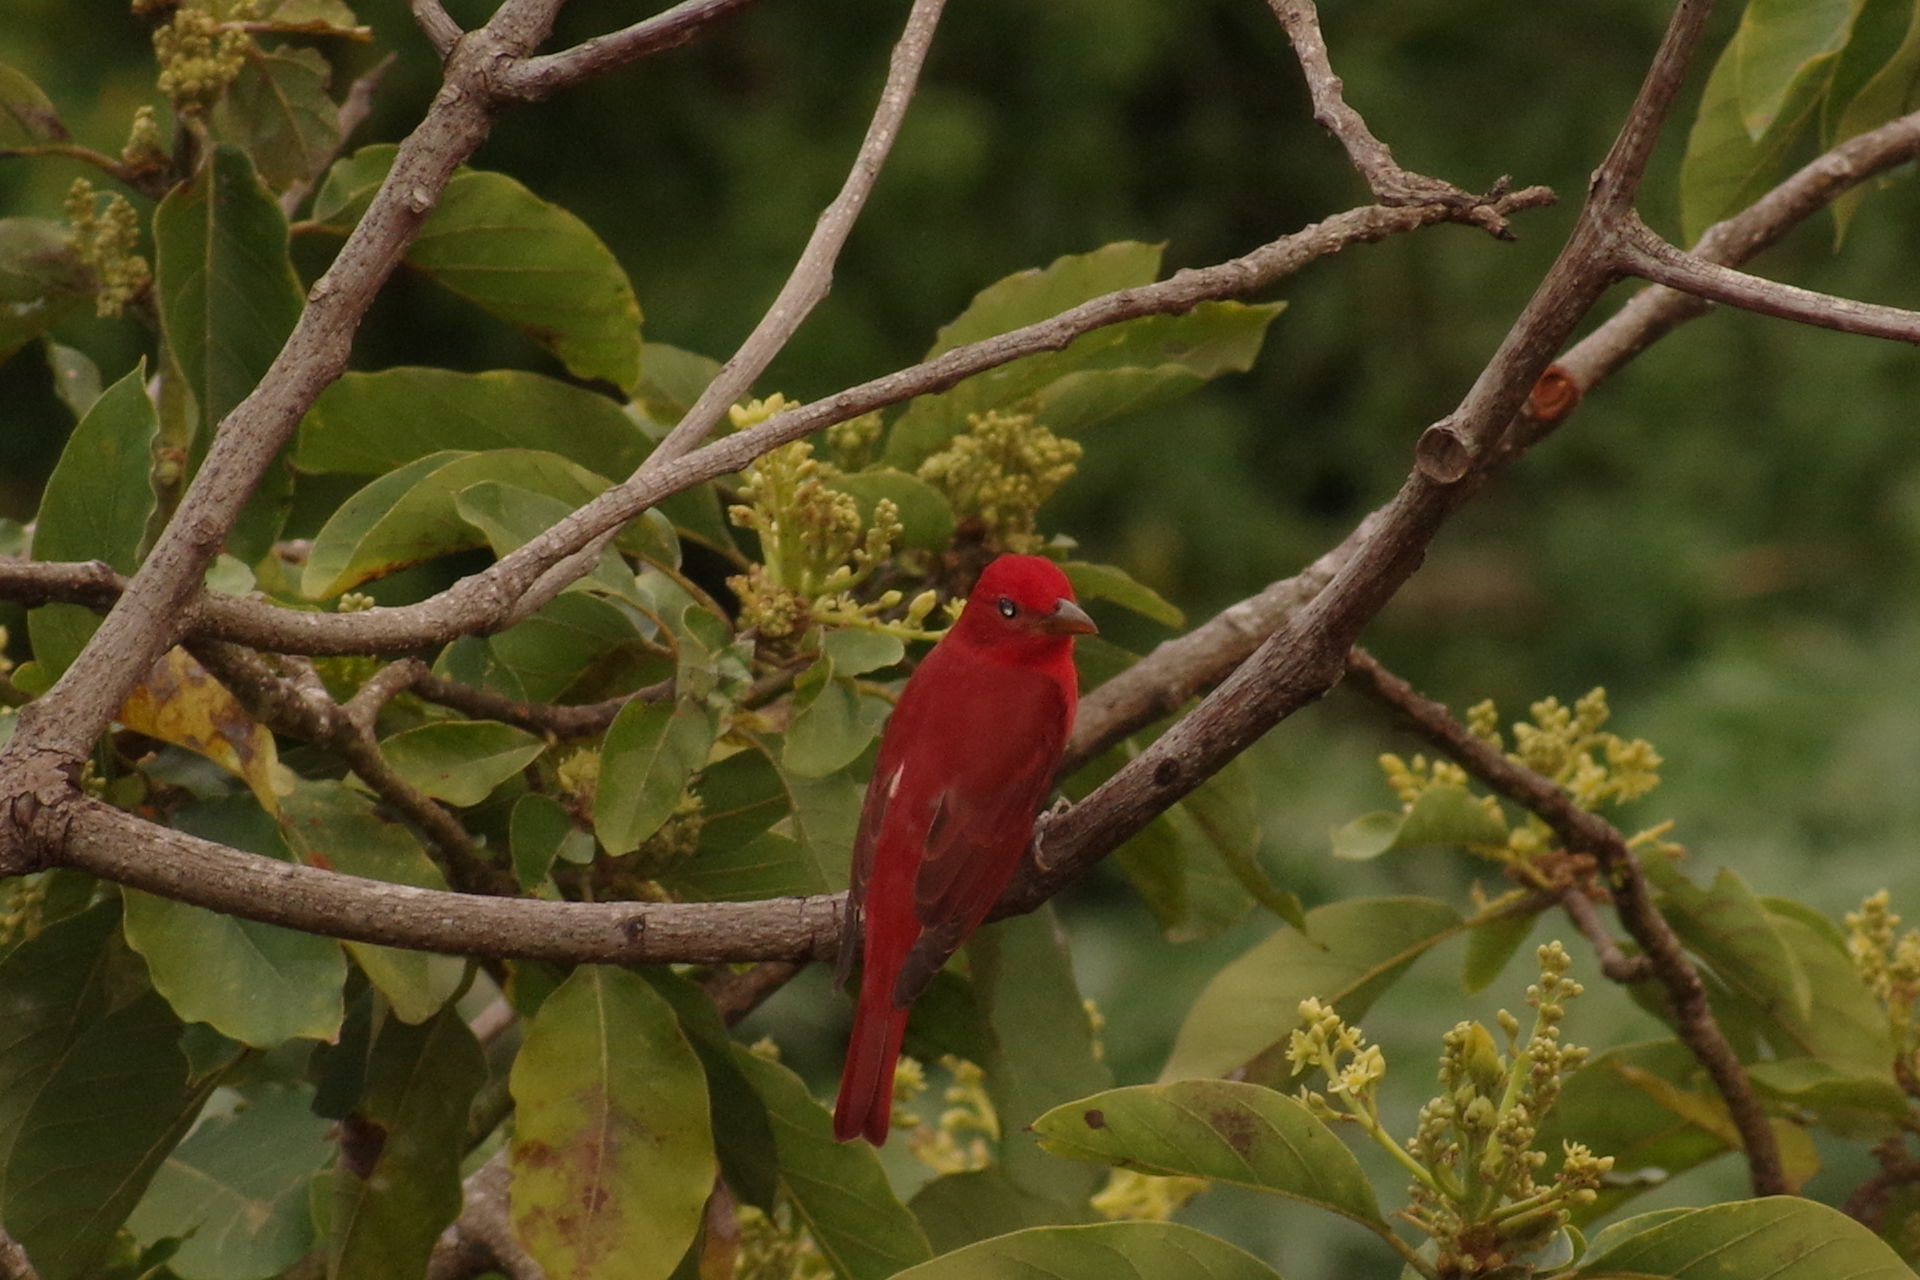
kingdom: Animalia
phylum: Chordata
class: Aves
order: Passeriformes
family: Cardinalidae
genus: Piranga
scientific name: Piranga rubra
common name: Summer tanager
